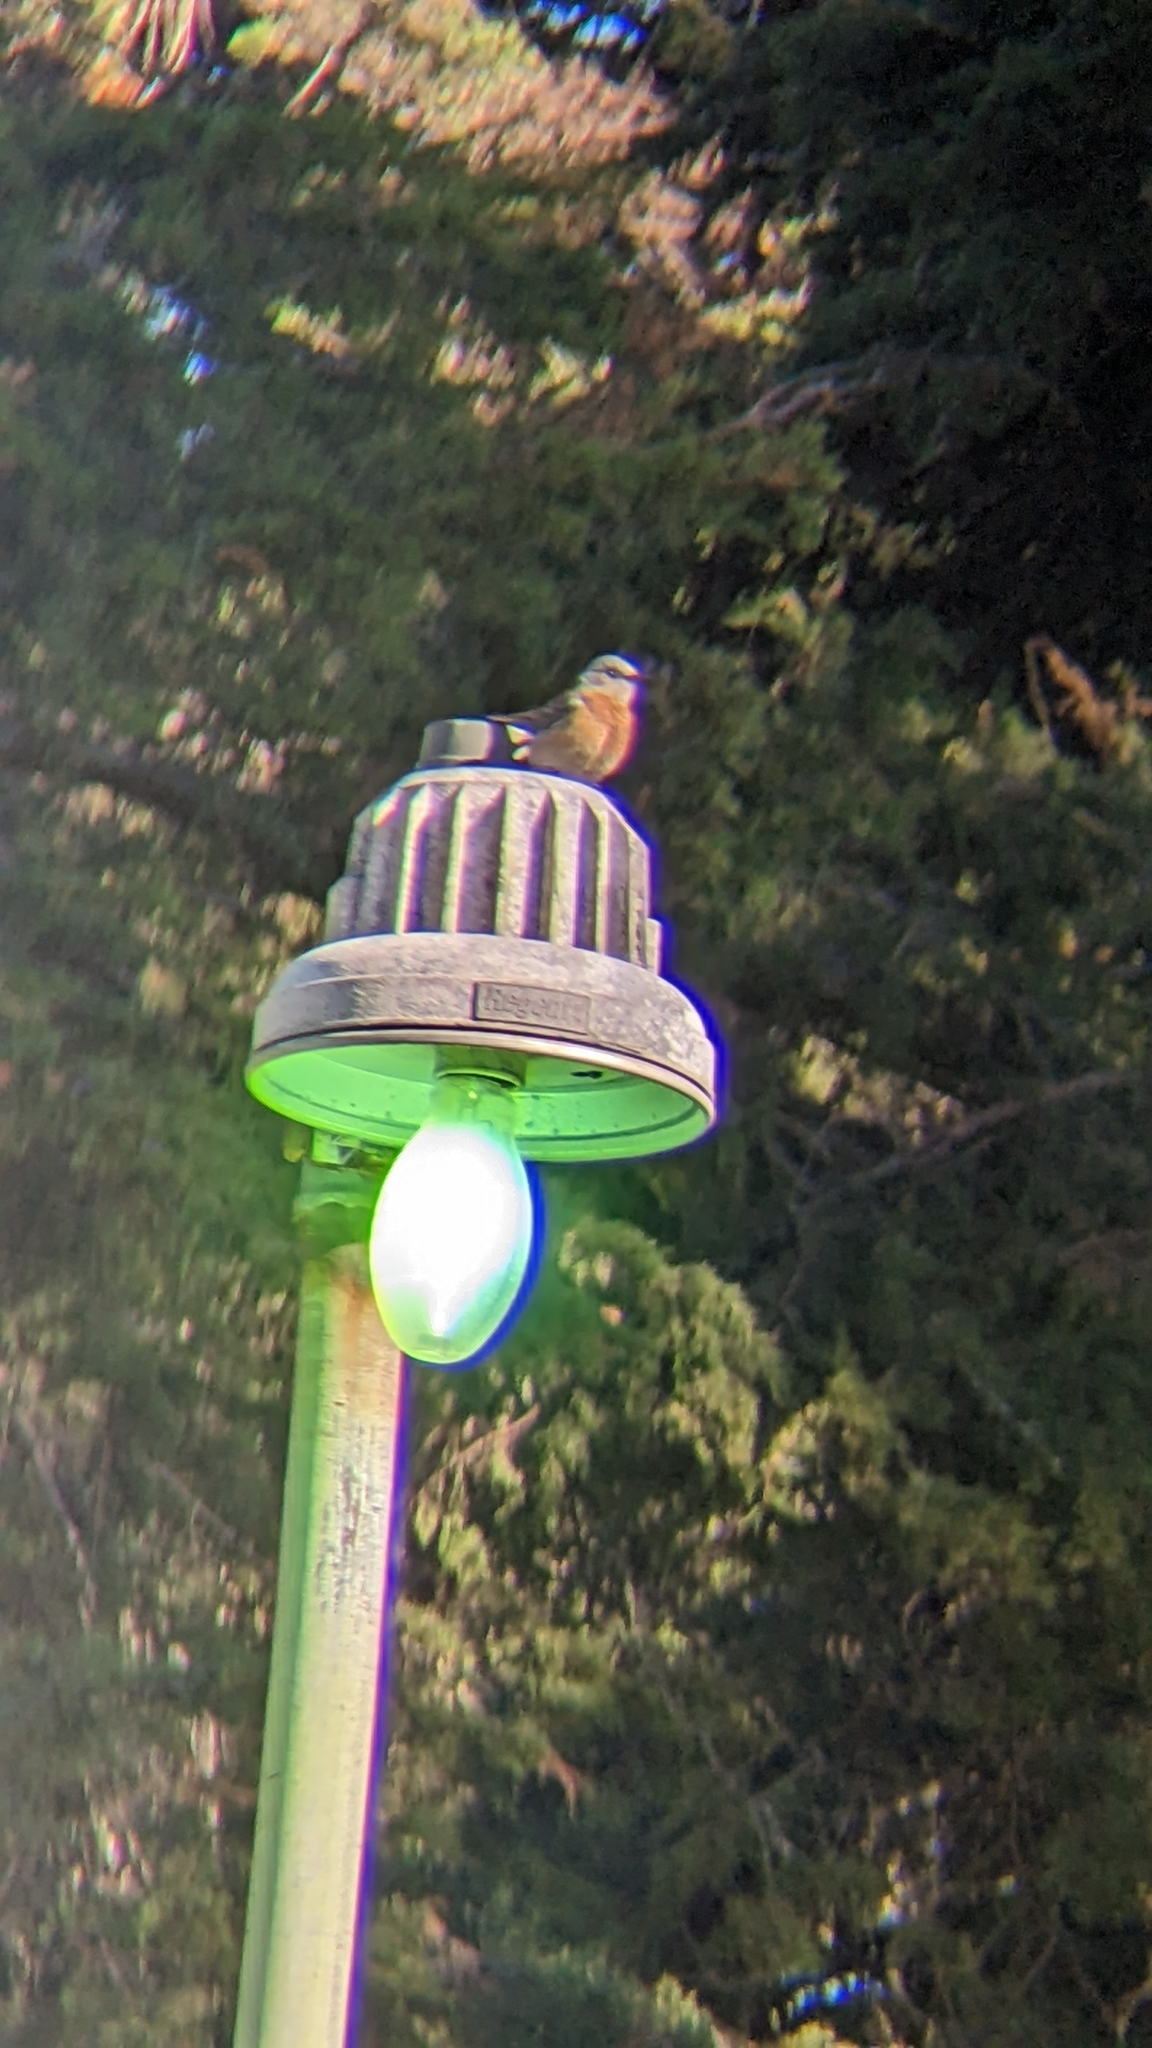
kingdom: Animalia
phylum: Chordata
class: Aves
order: Passeriformes
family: Turdidae
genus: Sialia
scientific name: Sialia mexicana
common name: Western bluebird
